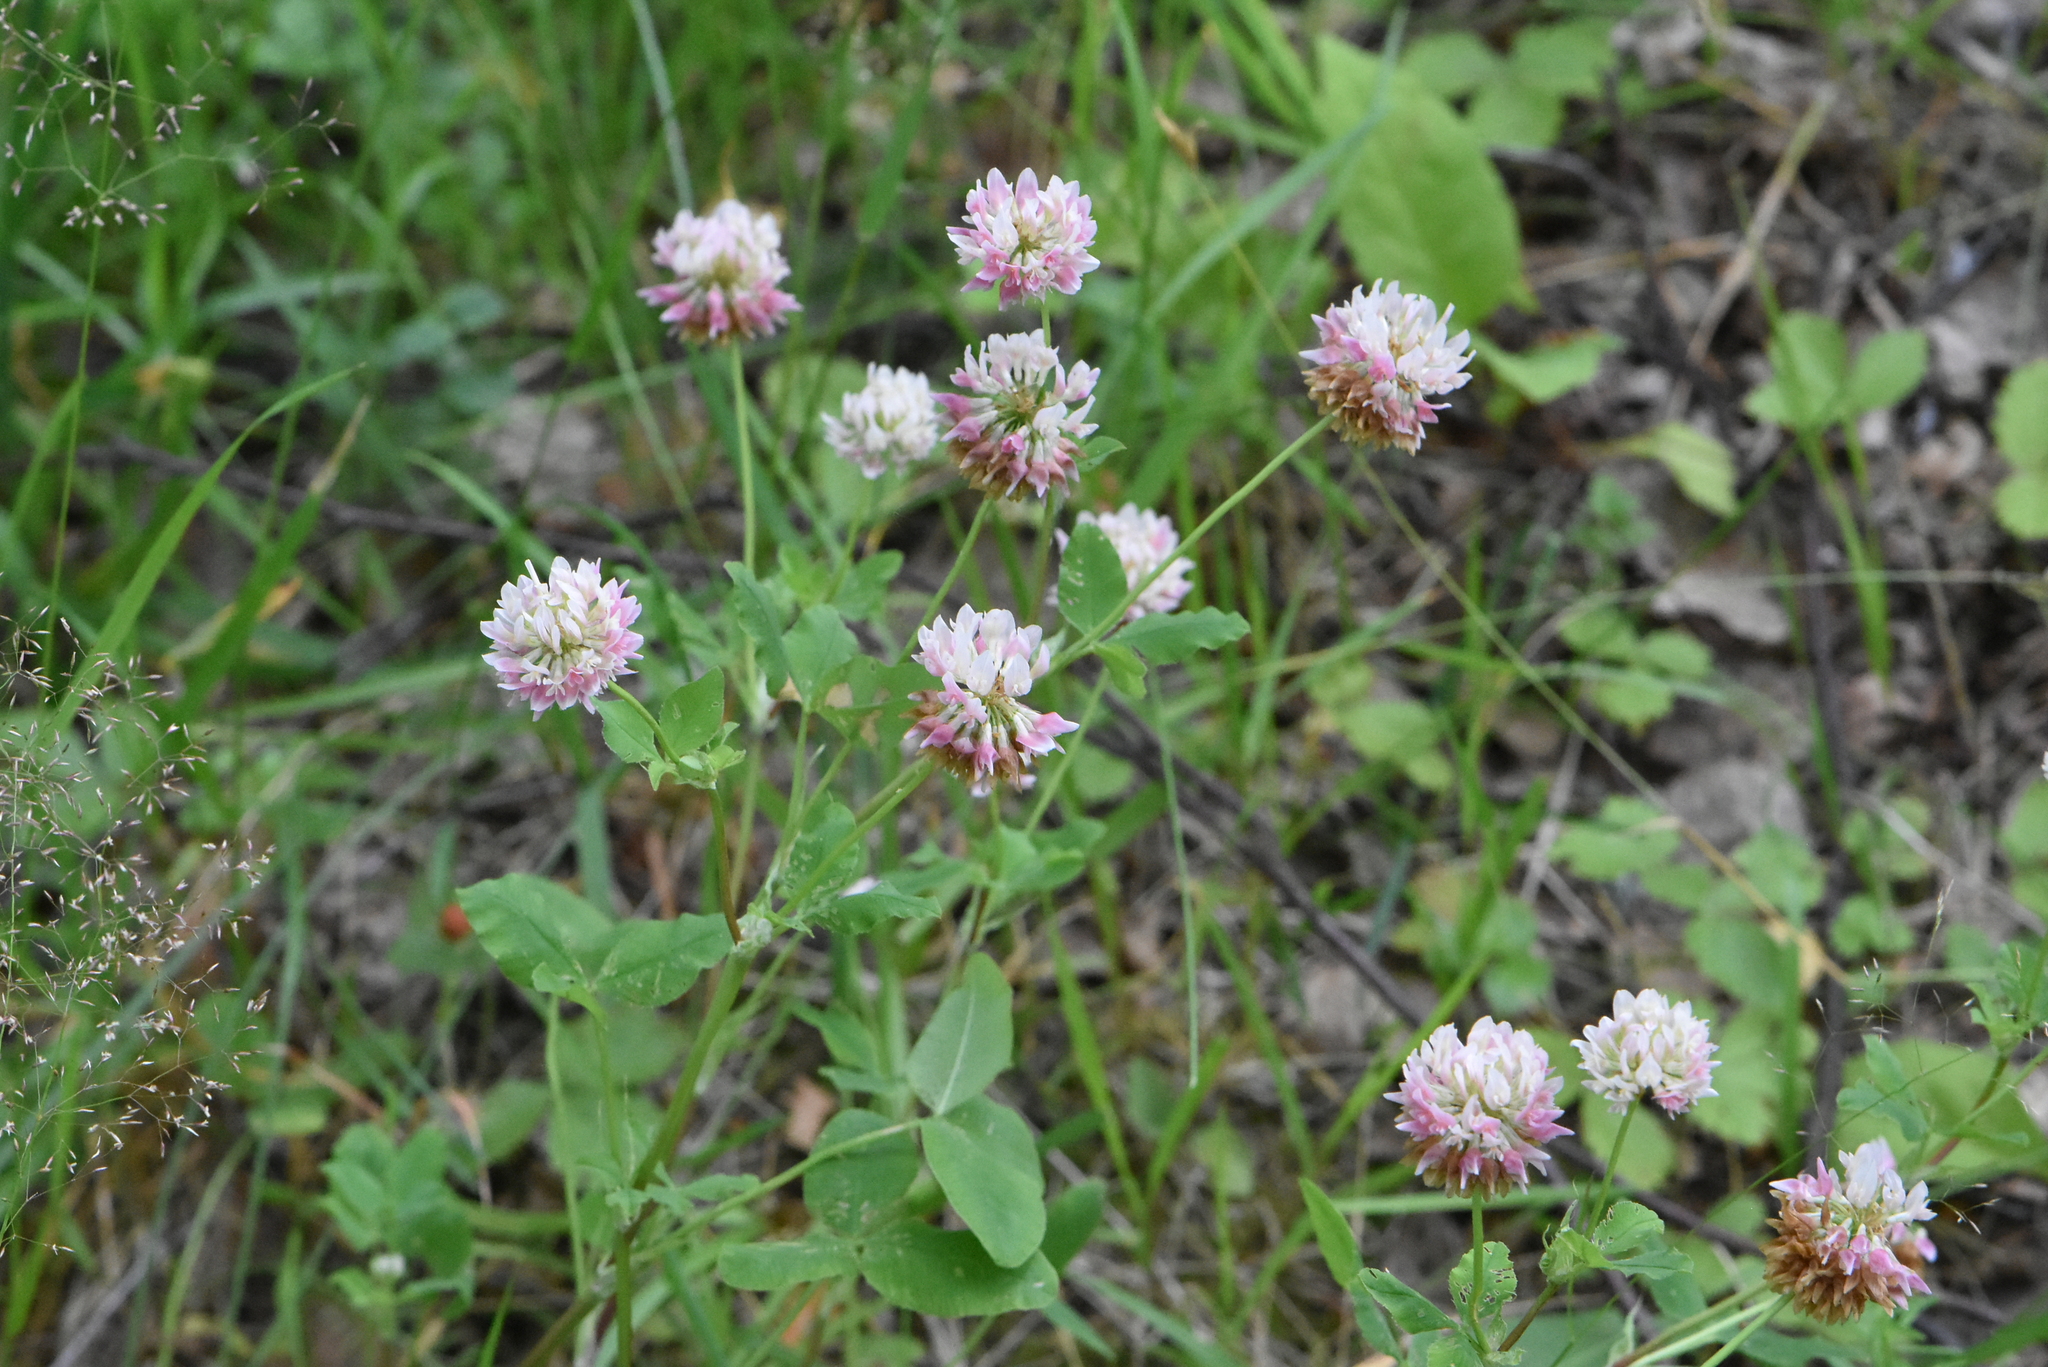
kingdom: Plantae
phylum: Tracheophyta
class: Magnoliopsida
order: Fabales
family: Fabaceae
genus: Trifolium
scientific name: Trifolium hybridum
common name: Alsike clover
